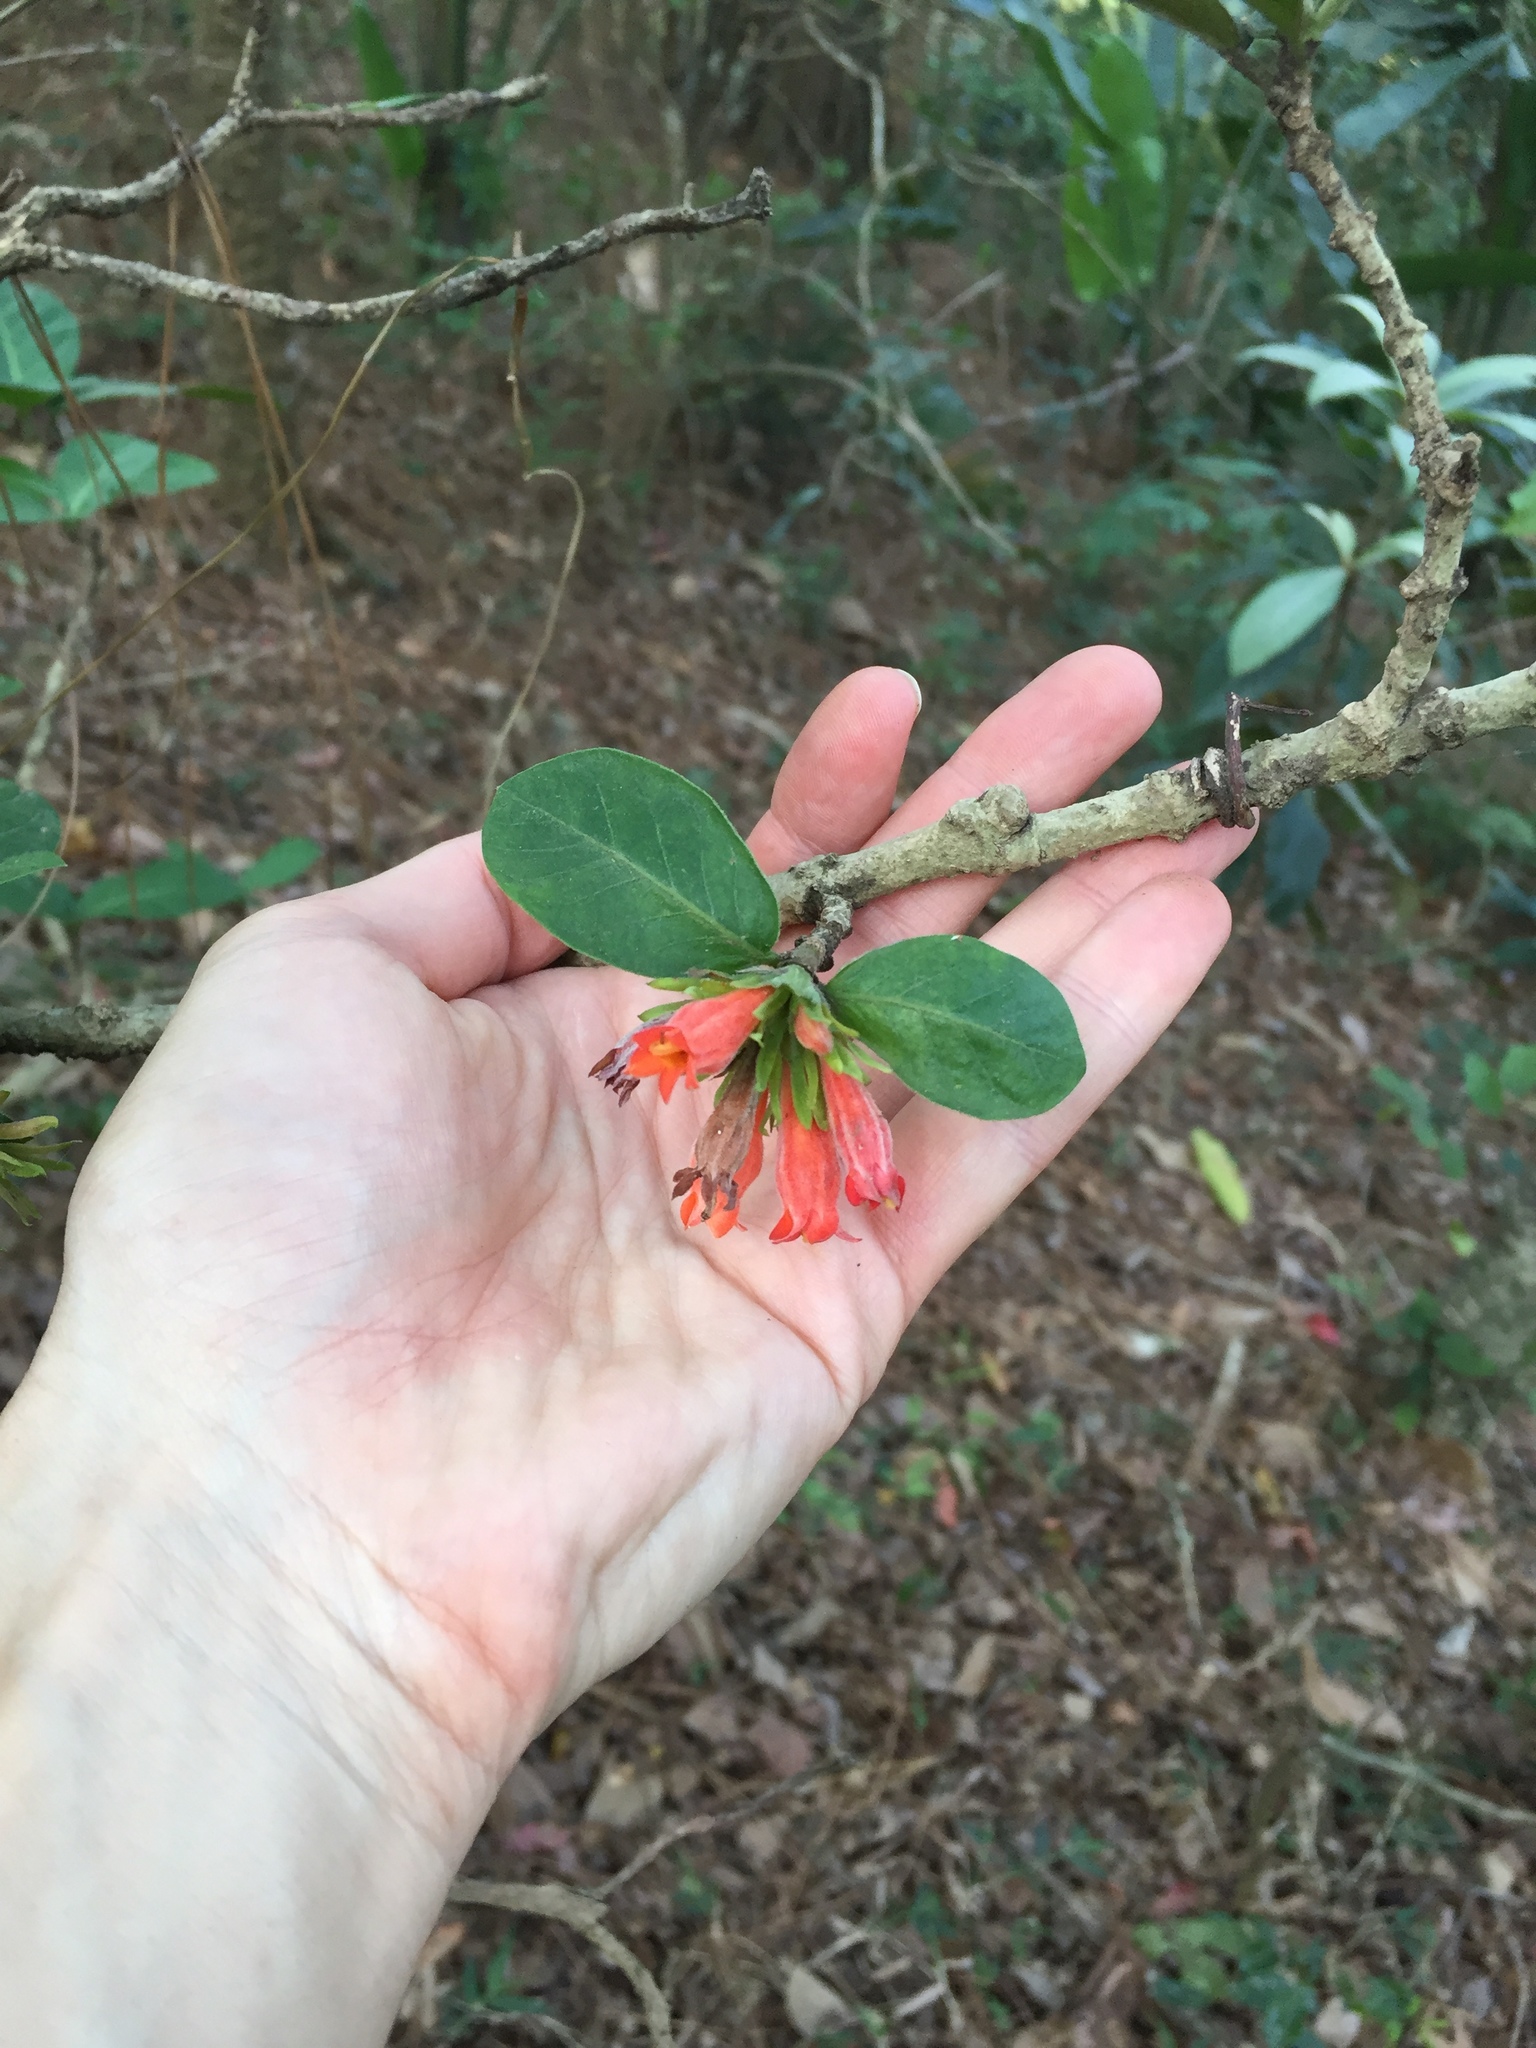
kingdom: Plantae
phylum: Tracheophyta
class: Magnoliopsida
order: Gentianales
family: Rubiaceae
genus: Burchellia
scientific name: Burchellia bubalina
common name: Wild pomegranate
